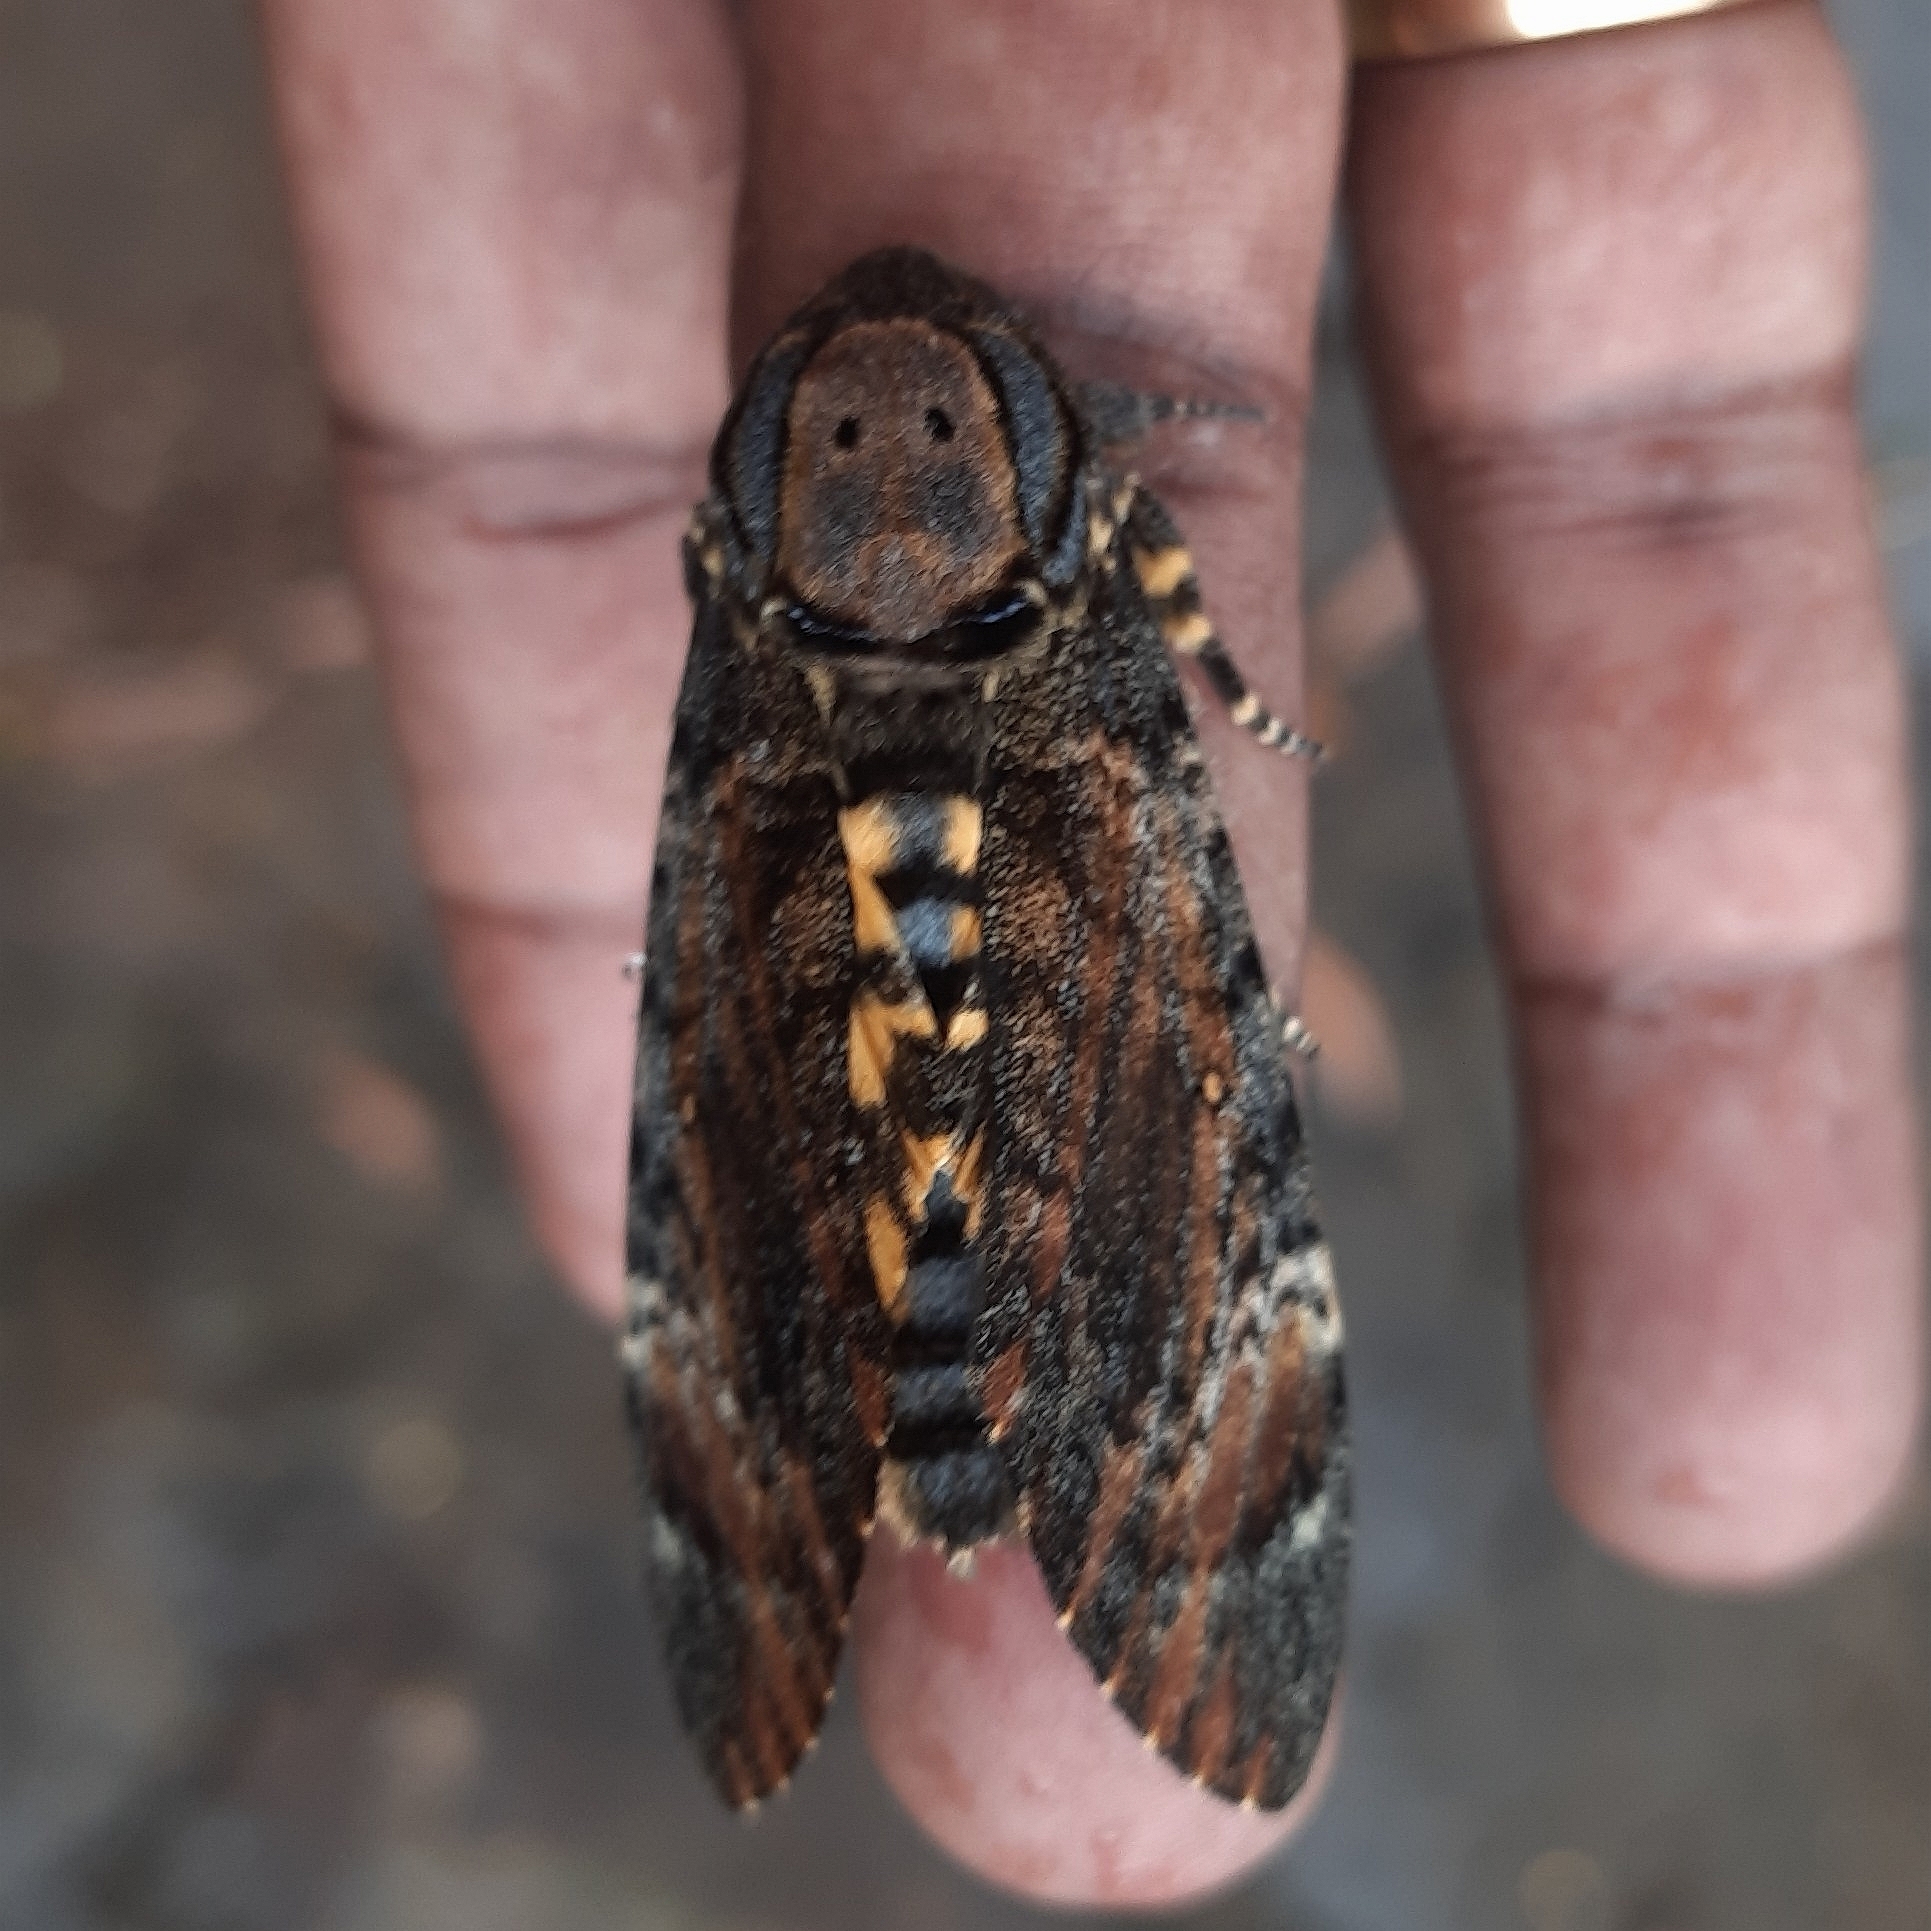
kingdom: Animalia
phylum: Arthropoda
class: Insecta
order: Lepidoptera
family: Sphingidae
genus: Acherontia
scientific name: Acherontia styx
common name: Death's-head hawk moth
